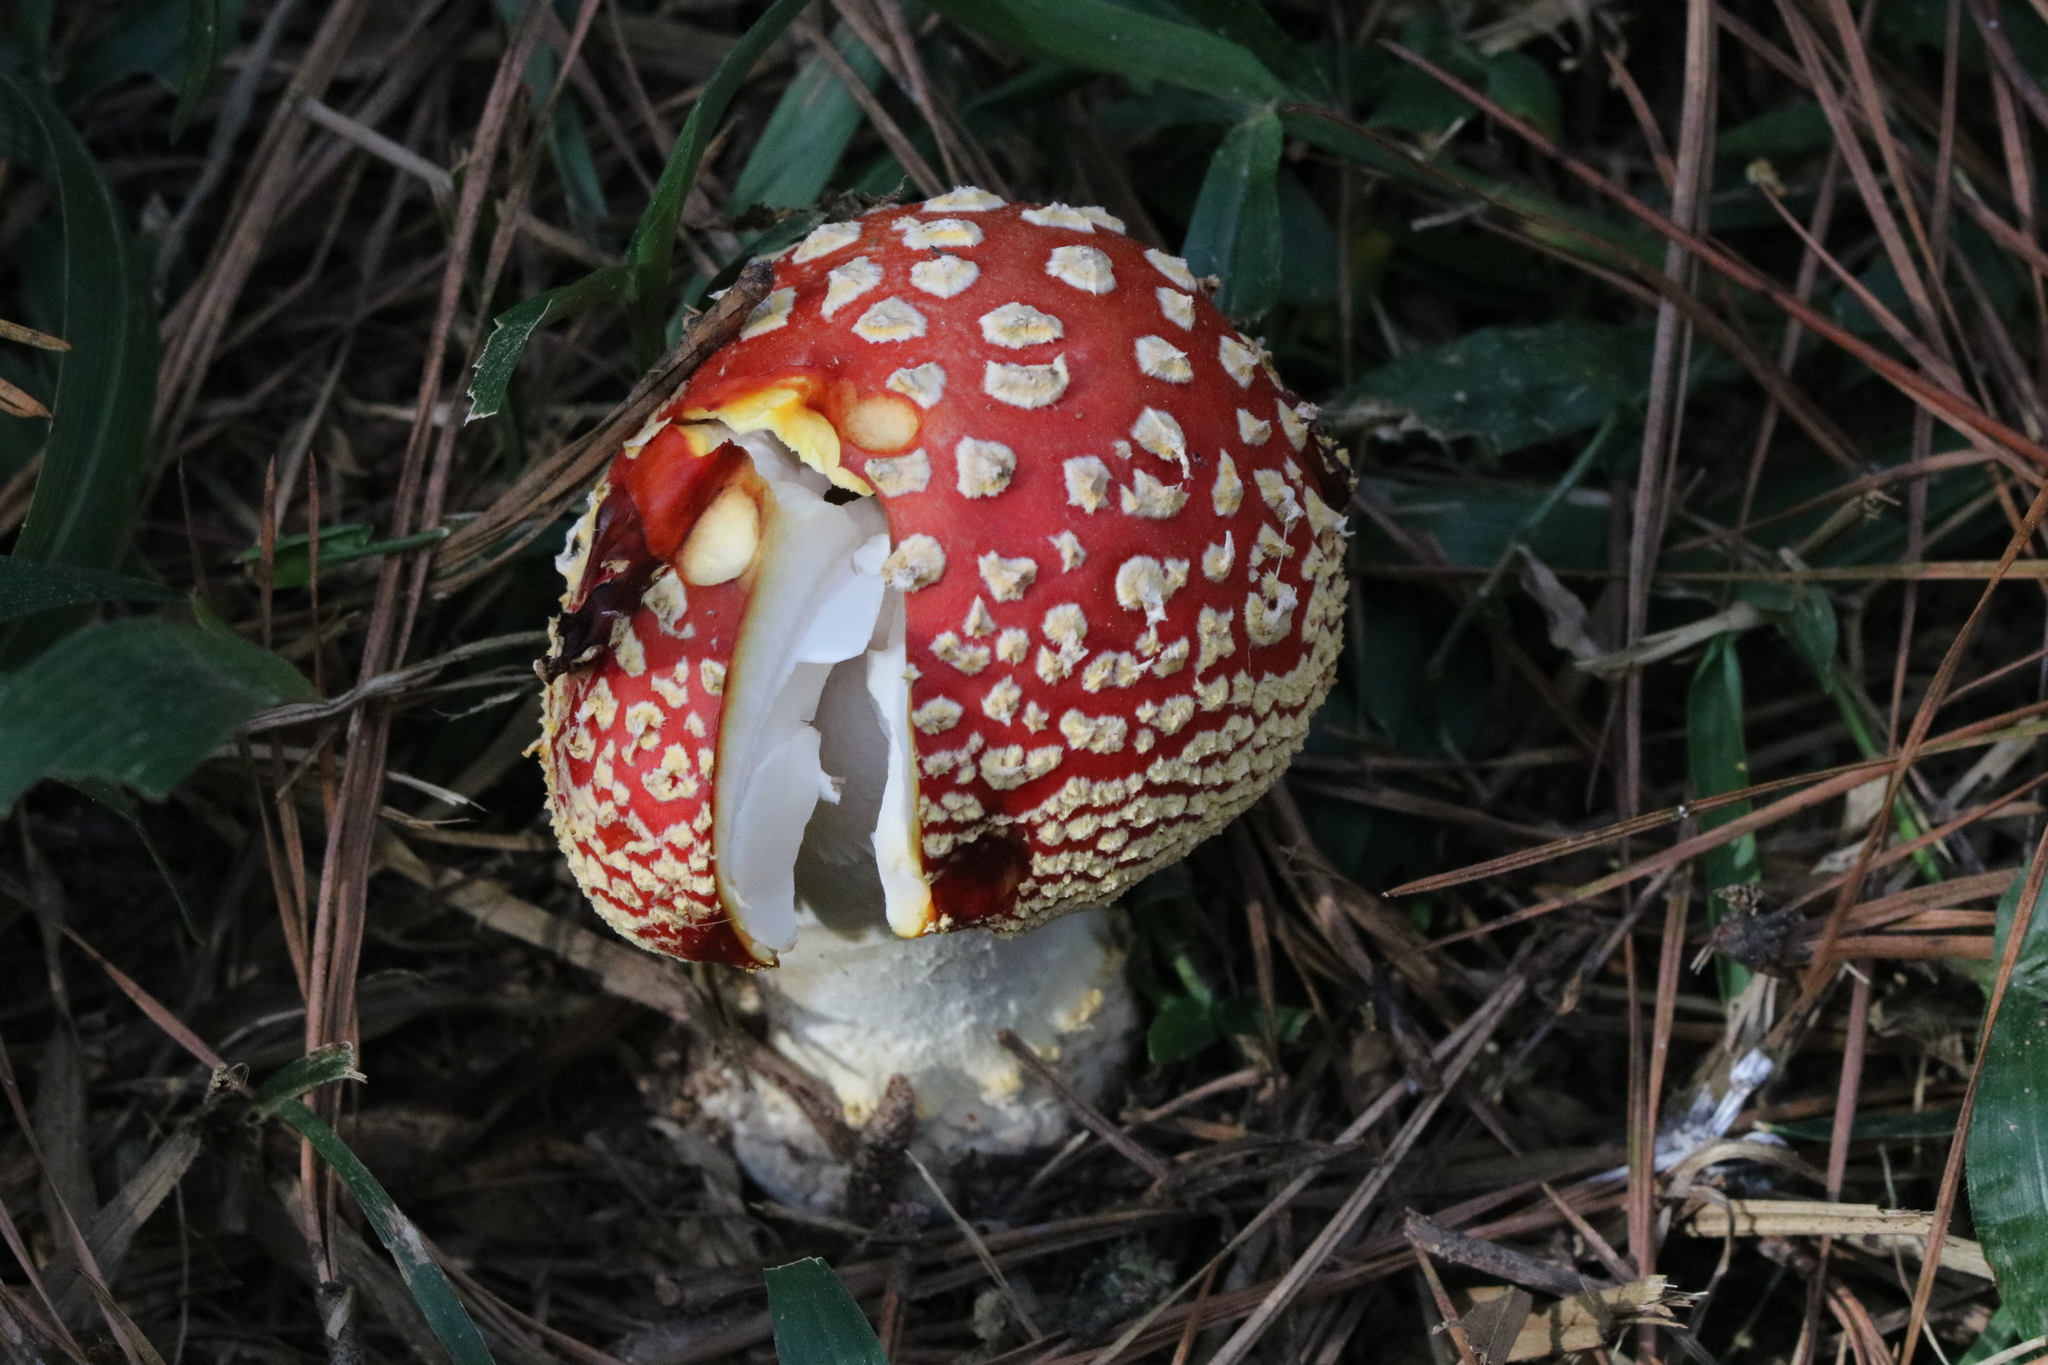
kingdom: Fungi
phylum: Basidiomycota
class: Agaricomycetes
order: Agaricales
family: Amanitaceae
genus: Amanita
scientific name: Amanita muscaria
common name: Fly agaric
